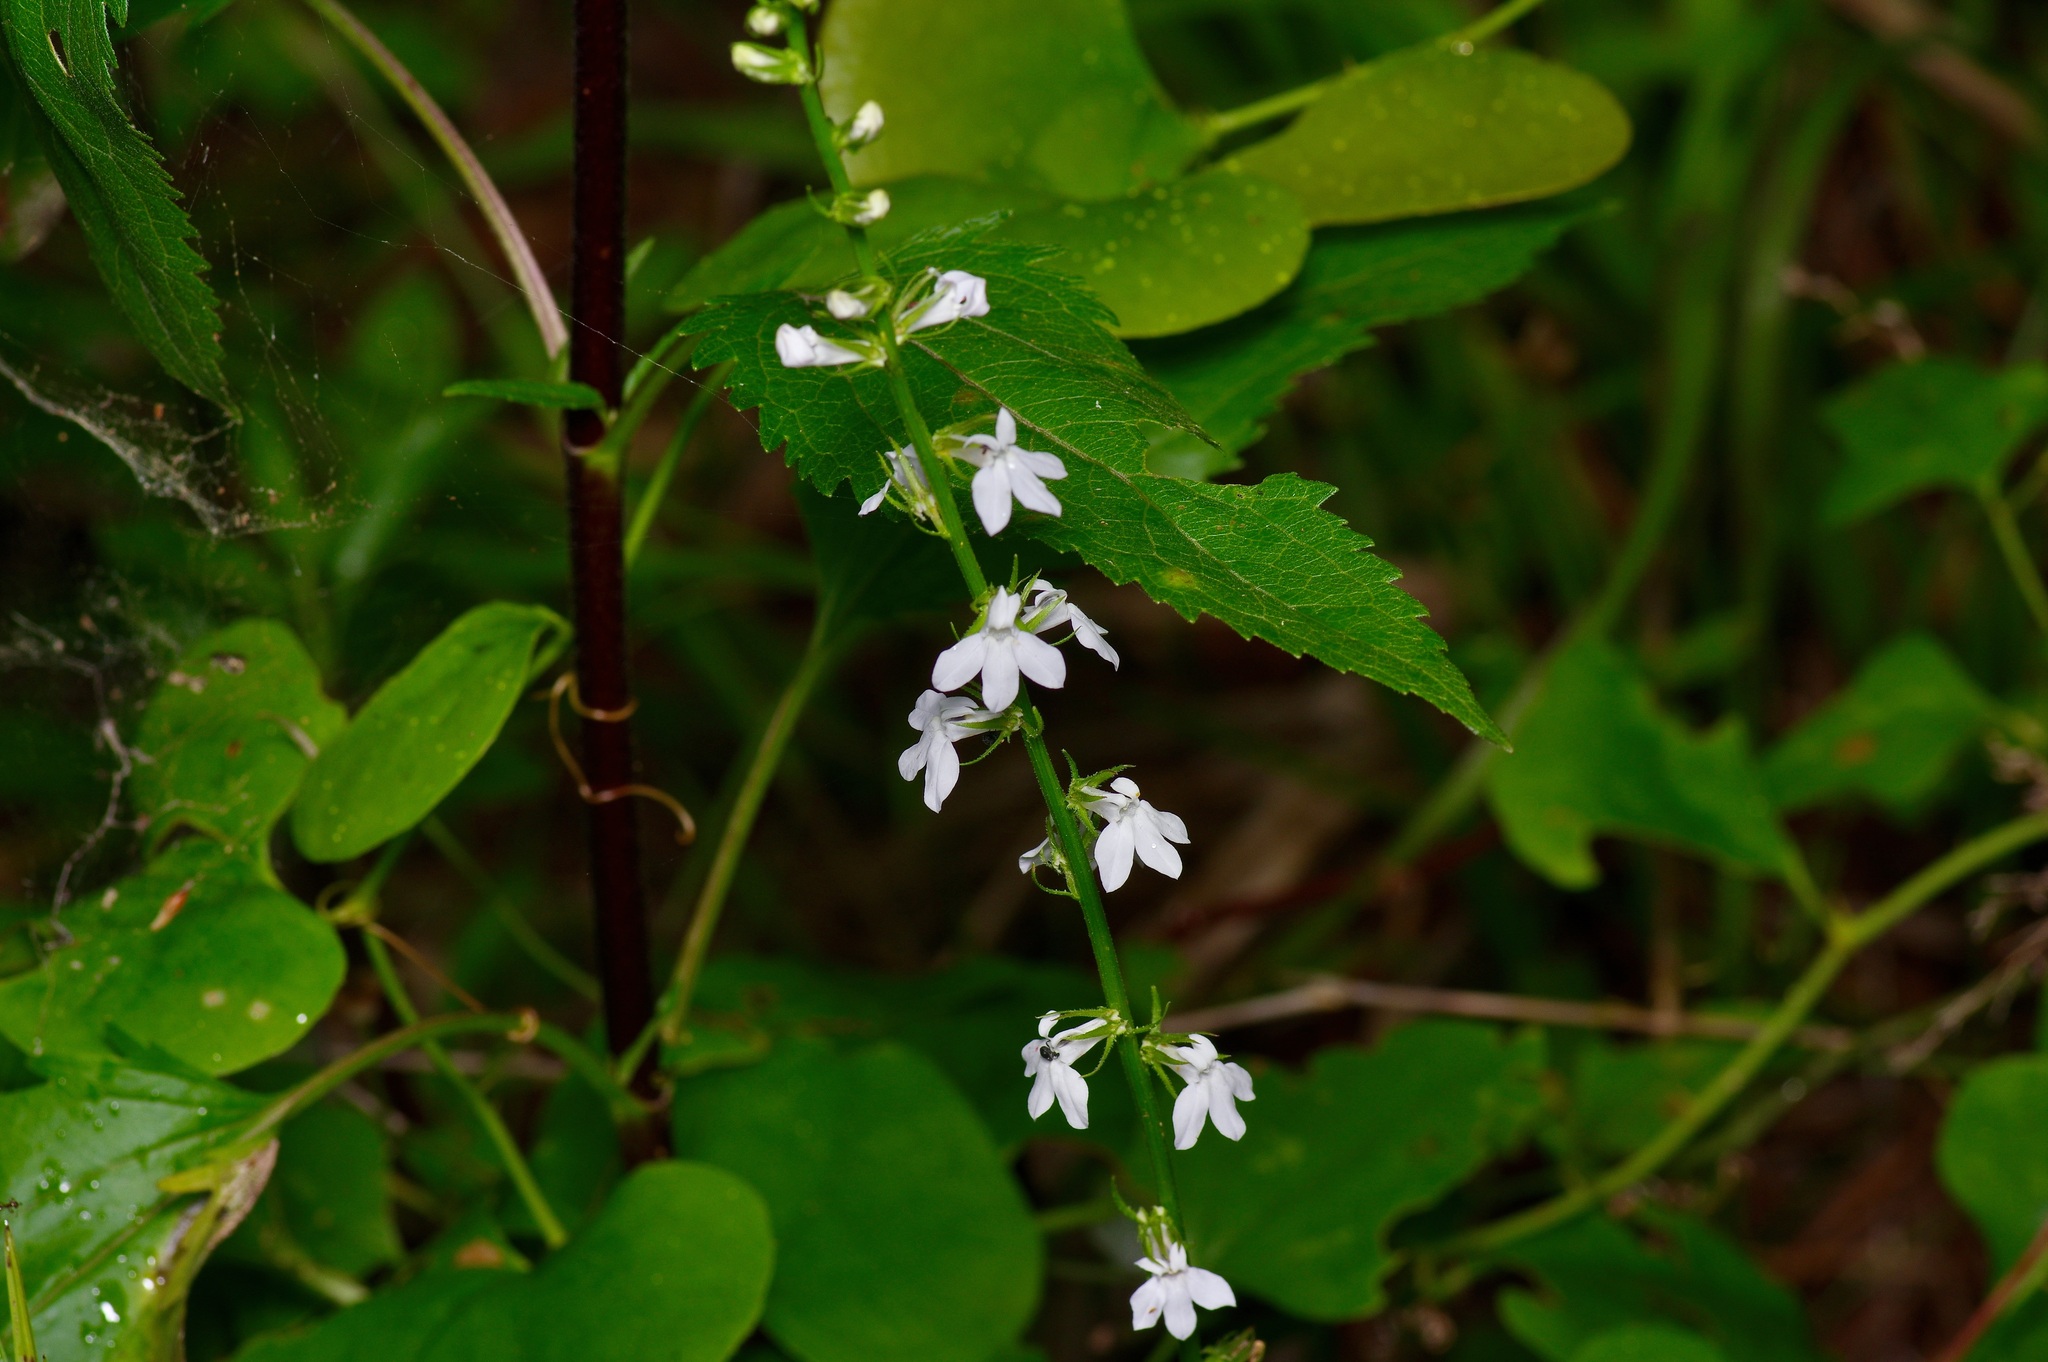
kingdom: Plantae
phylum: Tracheophyta
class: Magnoliopsida
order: Asterales
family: Campanulaceae
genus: Lobelia
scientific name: Lobelia appendiculata
